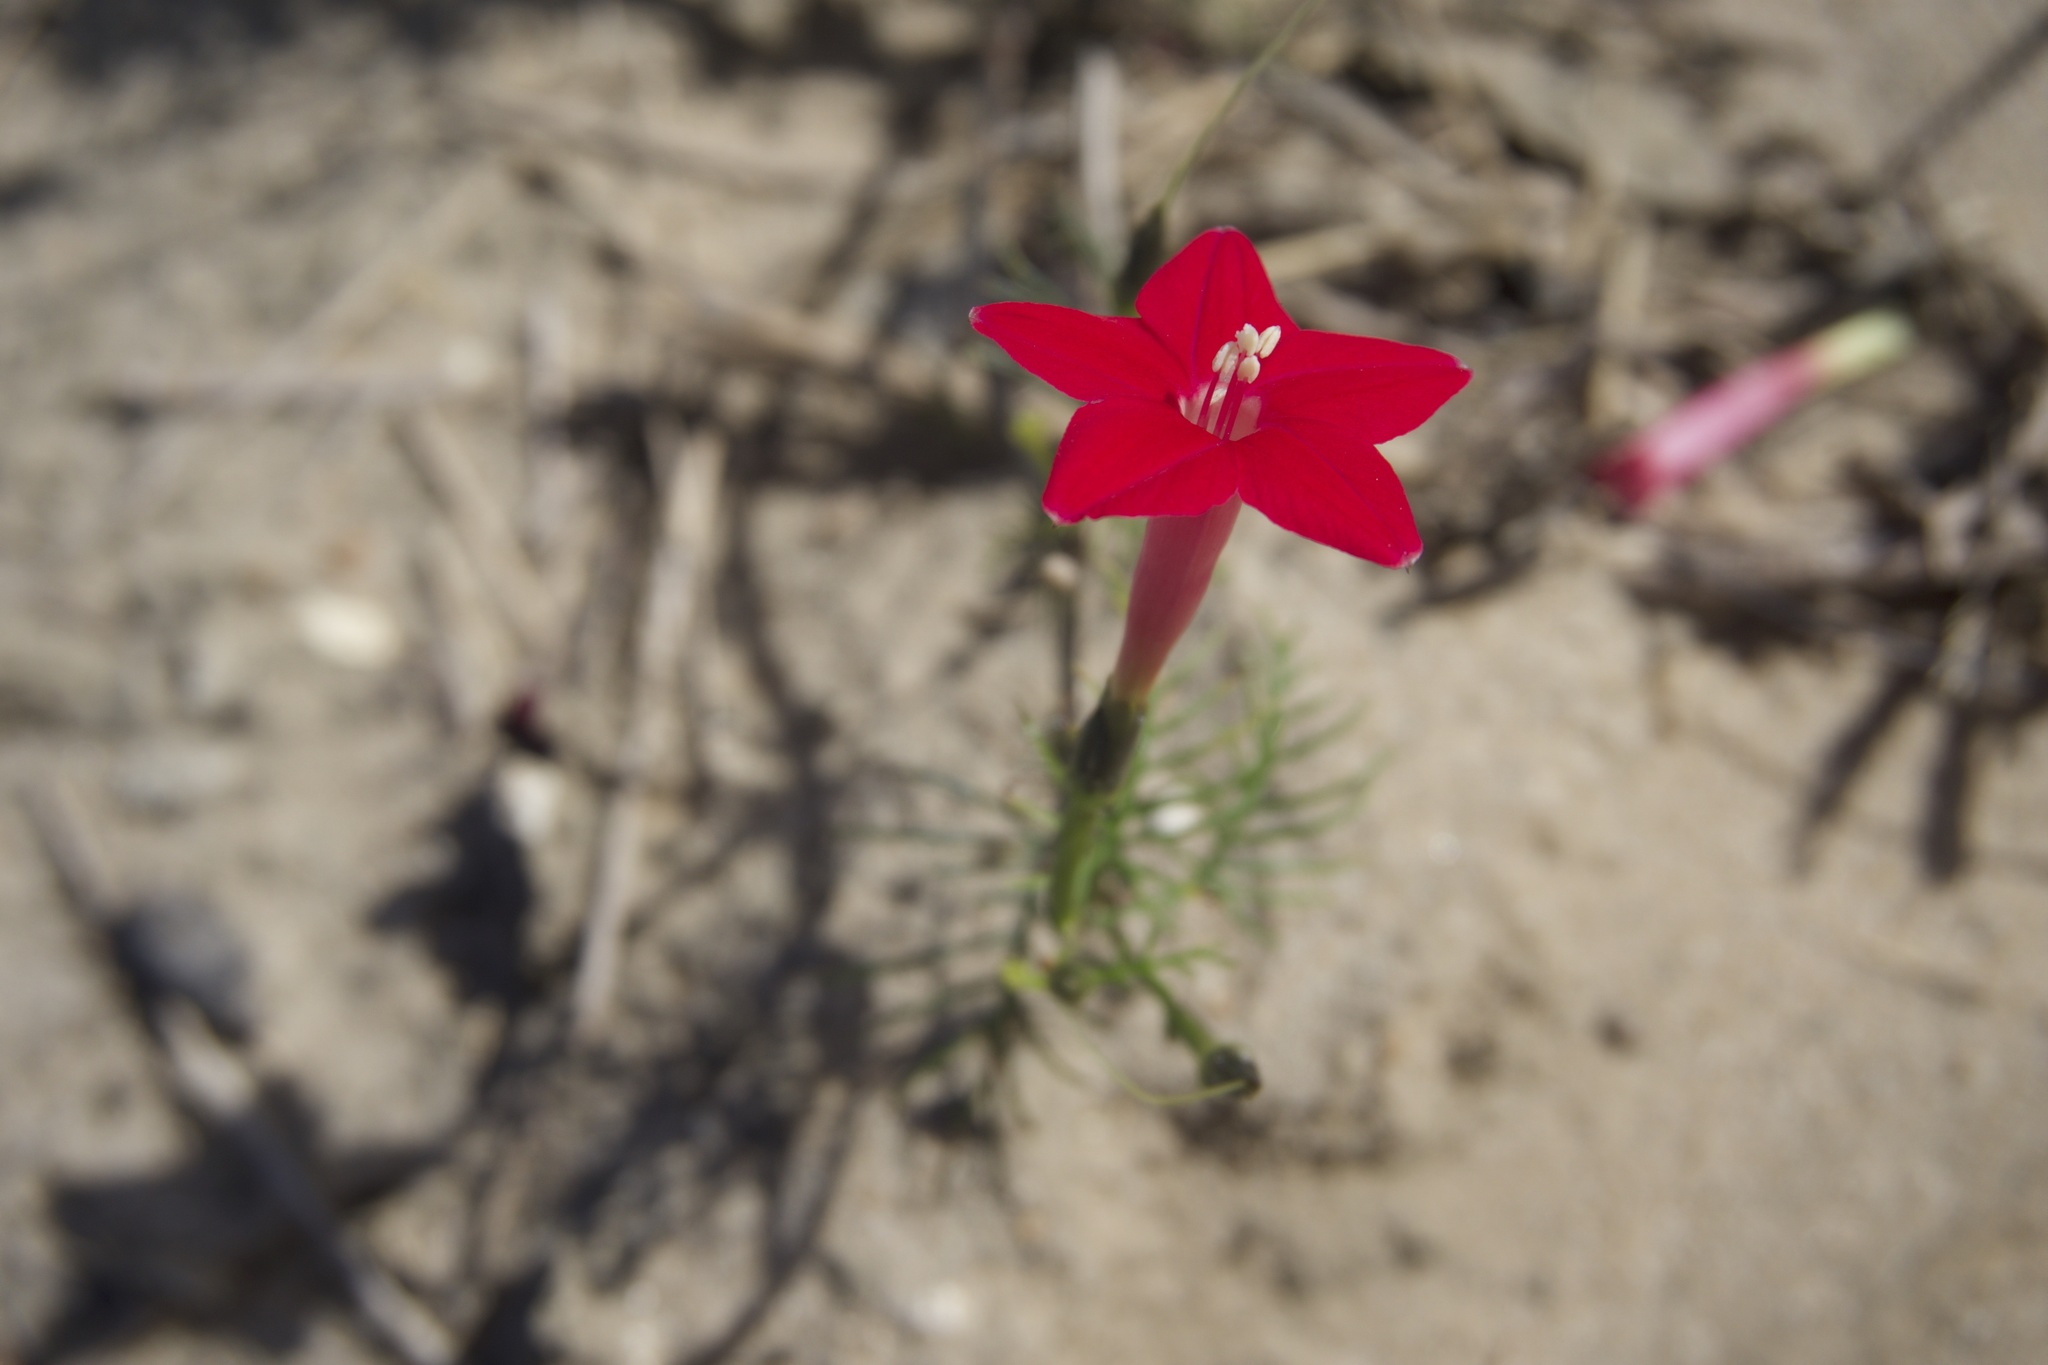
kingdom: Plantae
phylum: Tracheophyta
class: Magnoliopsida
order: Solanales
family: Convolvulaceae
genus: Ipomoea
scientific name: Ipomoea quamoclit
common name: Cypress vine
